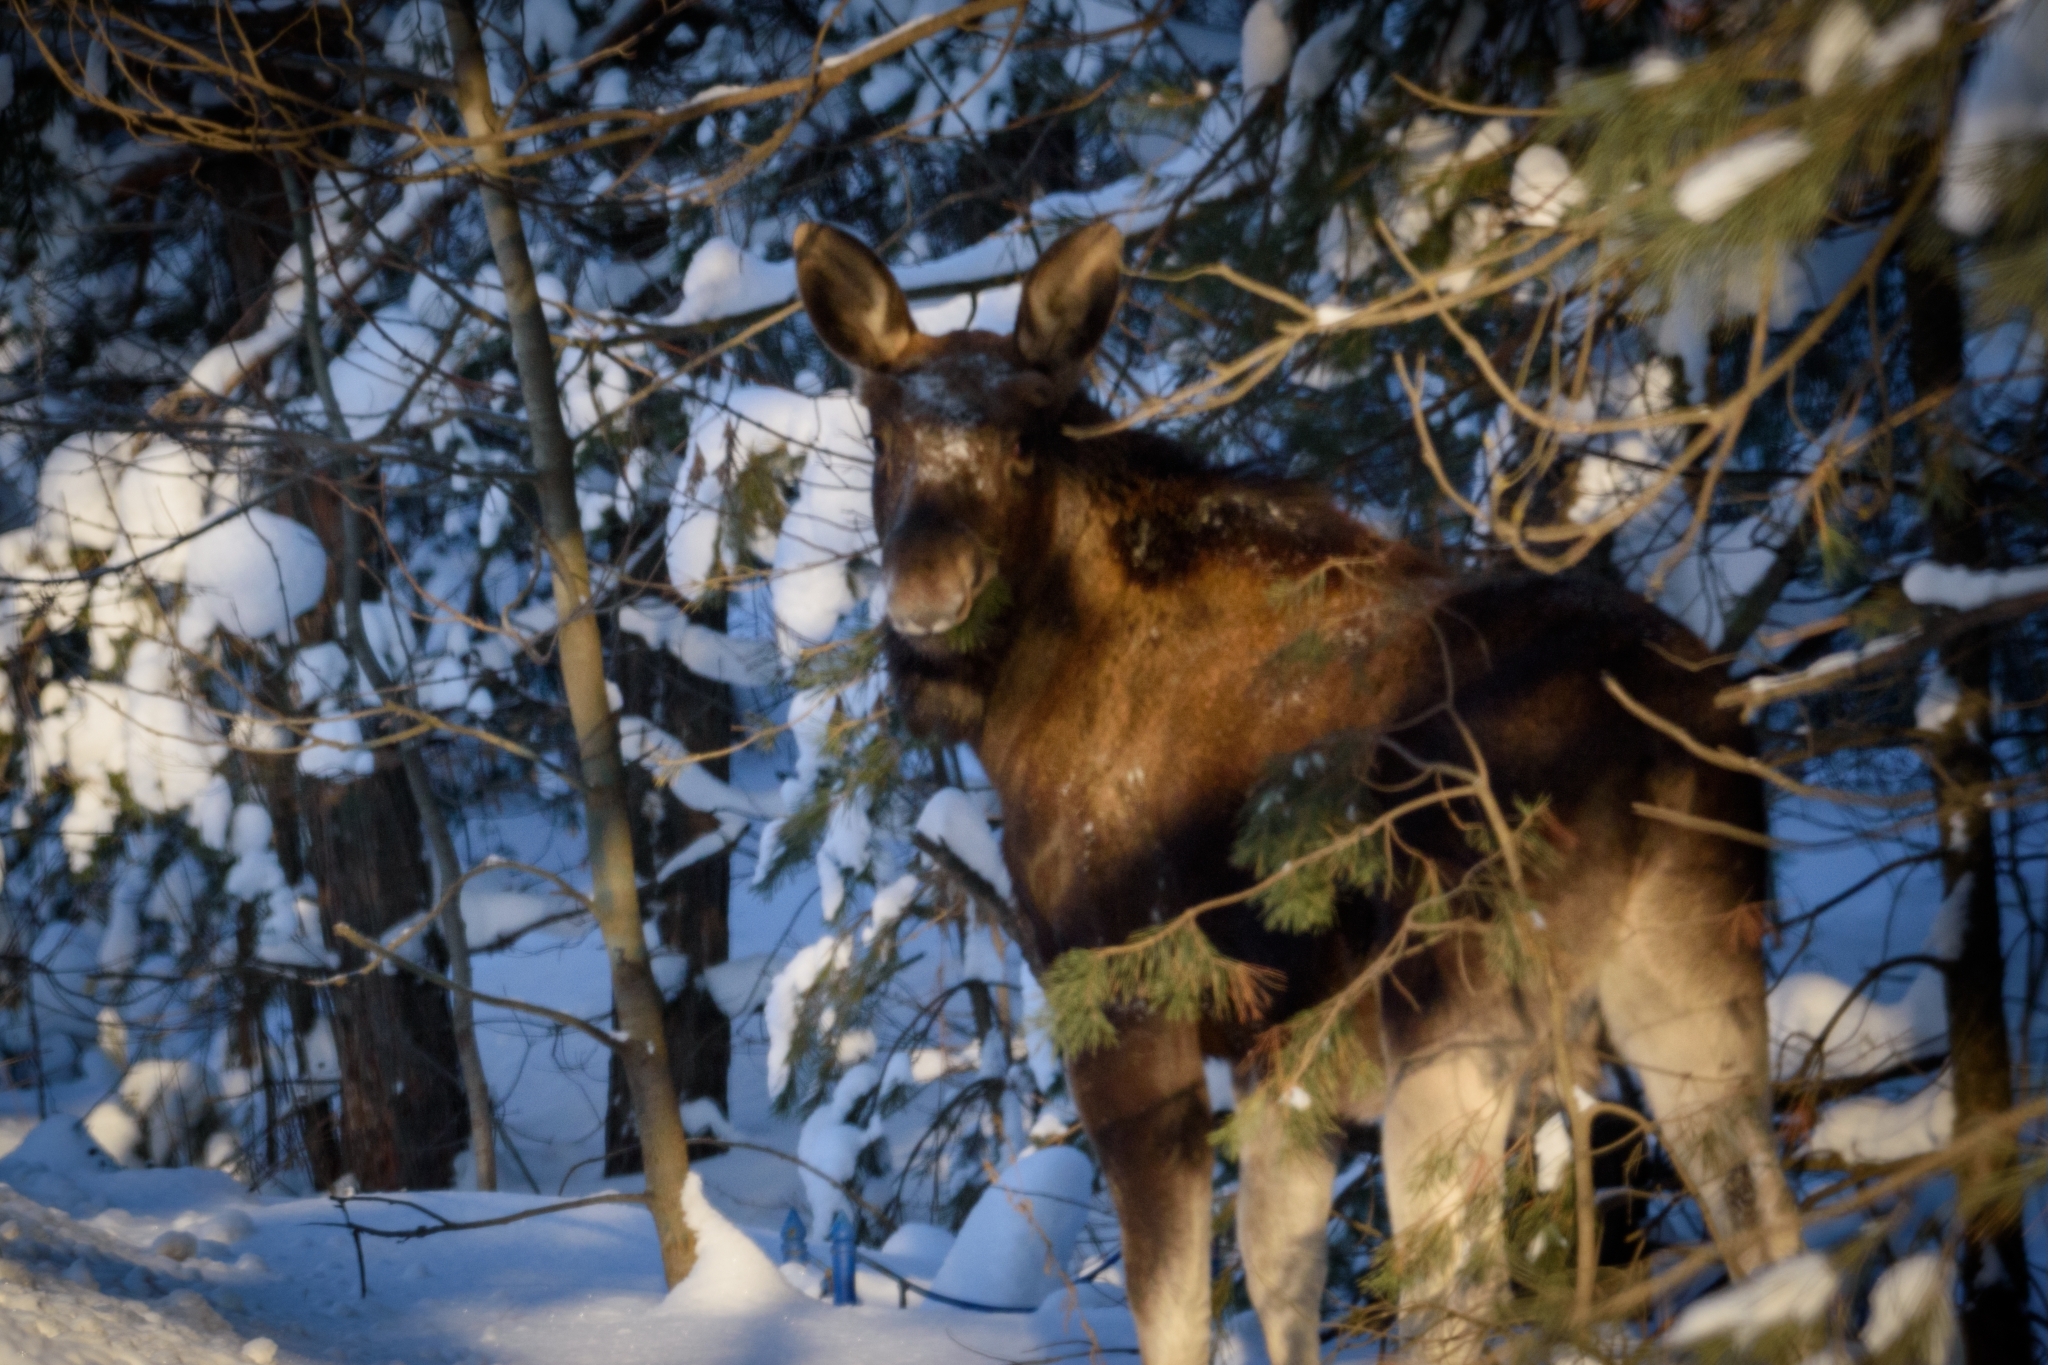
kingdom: Animalia
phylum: Chordata
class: Mammalia
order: Artiodactyla
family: Cervidae
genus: Alces
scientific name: Alces alces
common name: Moose
